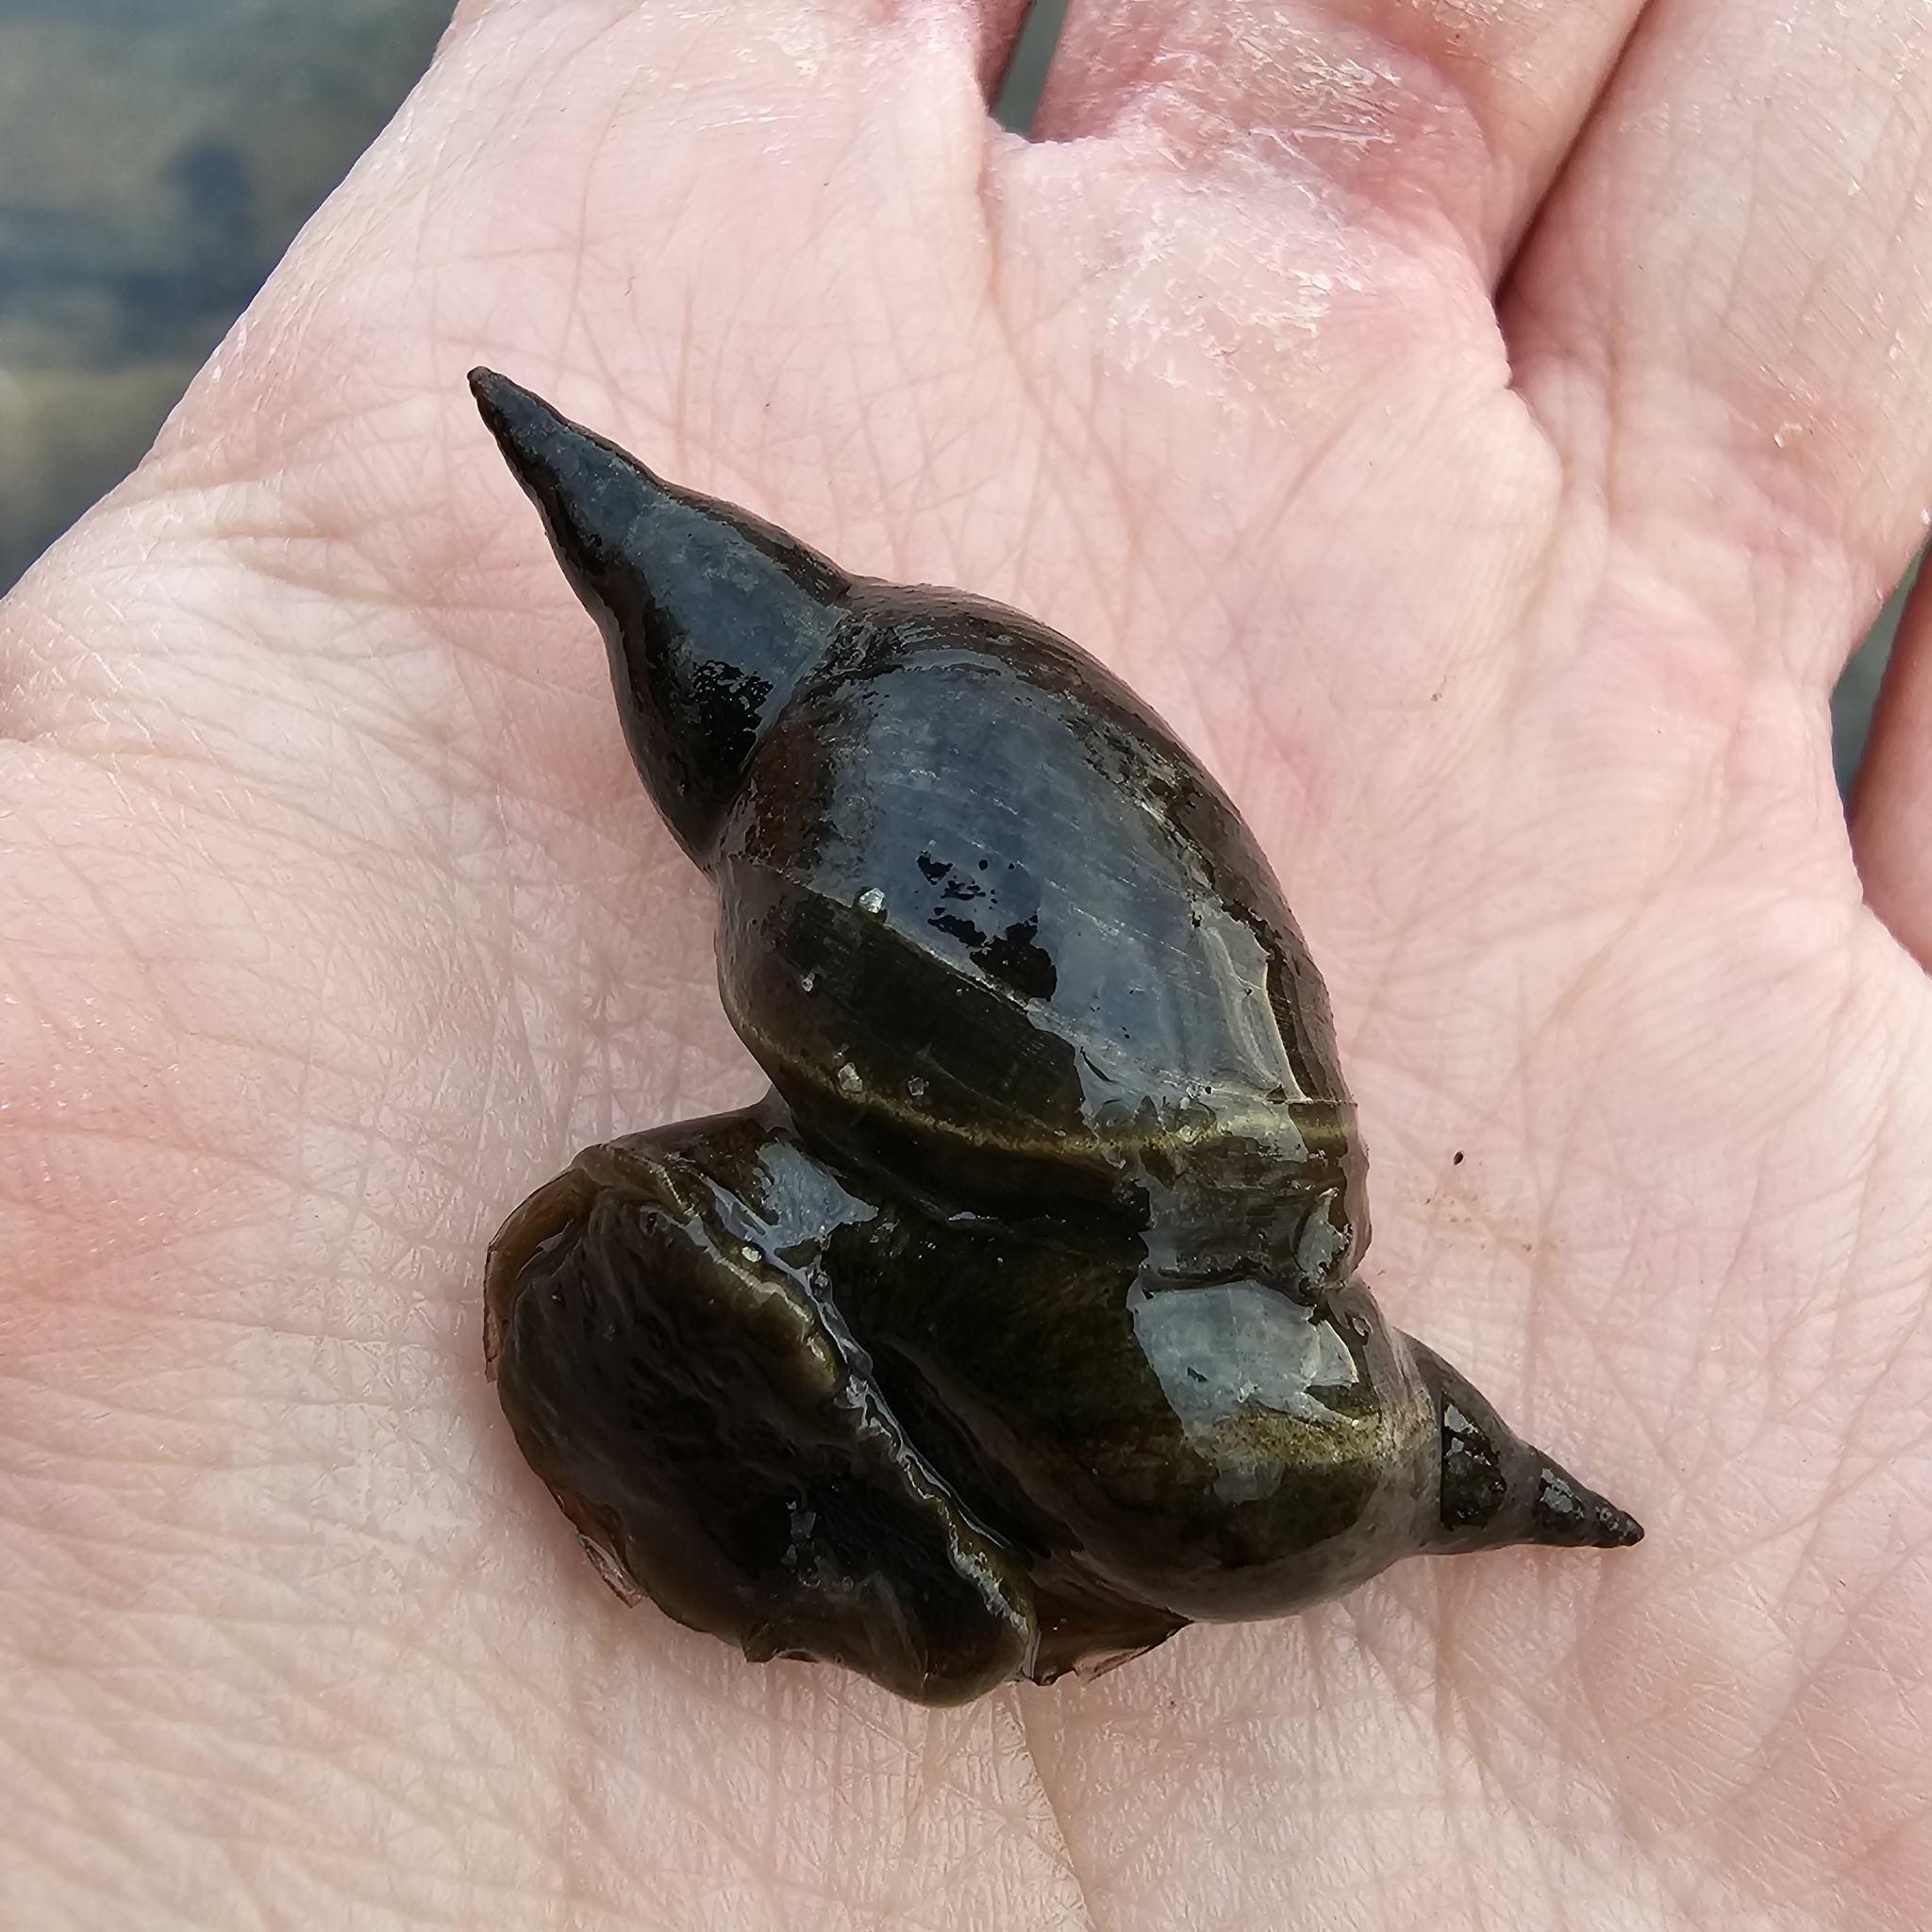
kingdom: Animalia
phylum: Mollusca
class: Gastropoda
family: Lymnaeidae
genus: Lymnaea
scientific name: Lymnaea stagnalis
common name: Great pond snail
